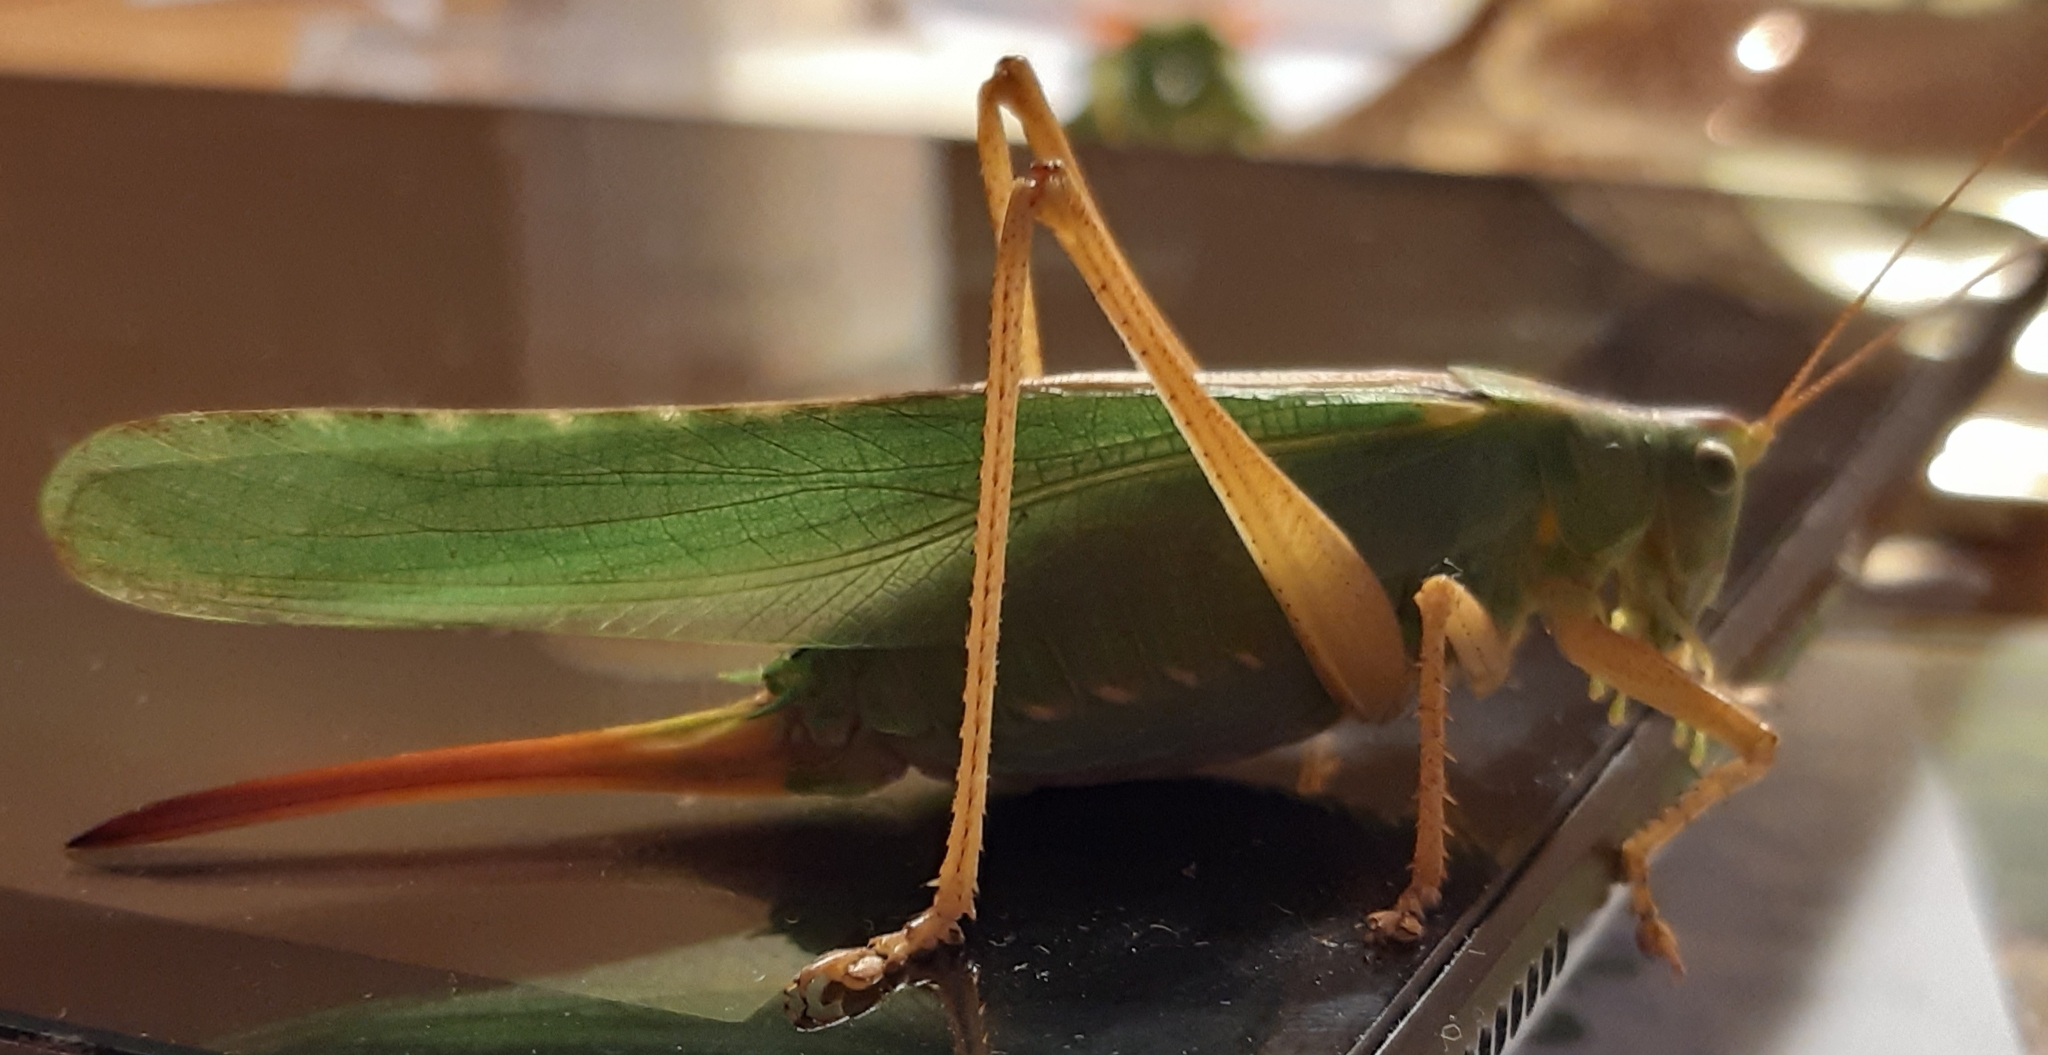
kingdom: Animalia
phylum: Arthropoda
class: Insecta
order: Orthoptera
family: Tettigoniidae
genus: Tettigonia
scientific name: Tettigonia viridissima
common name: Great green bush-cricket
